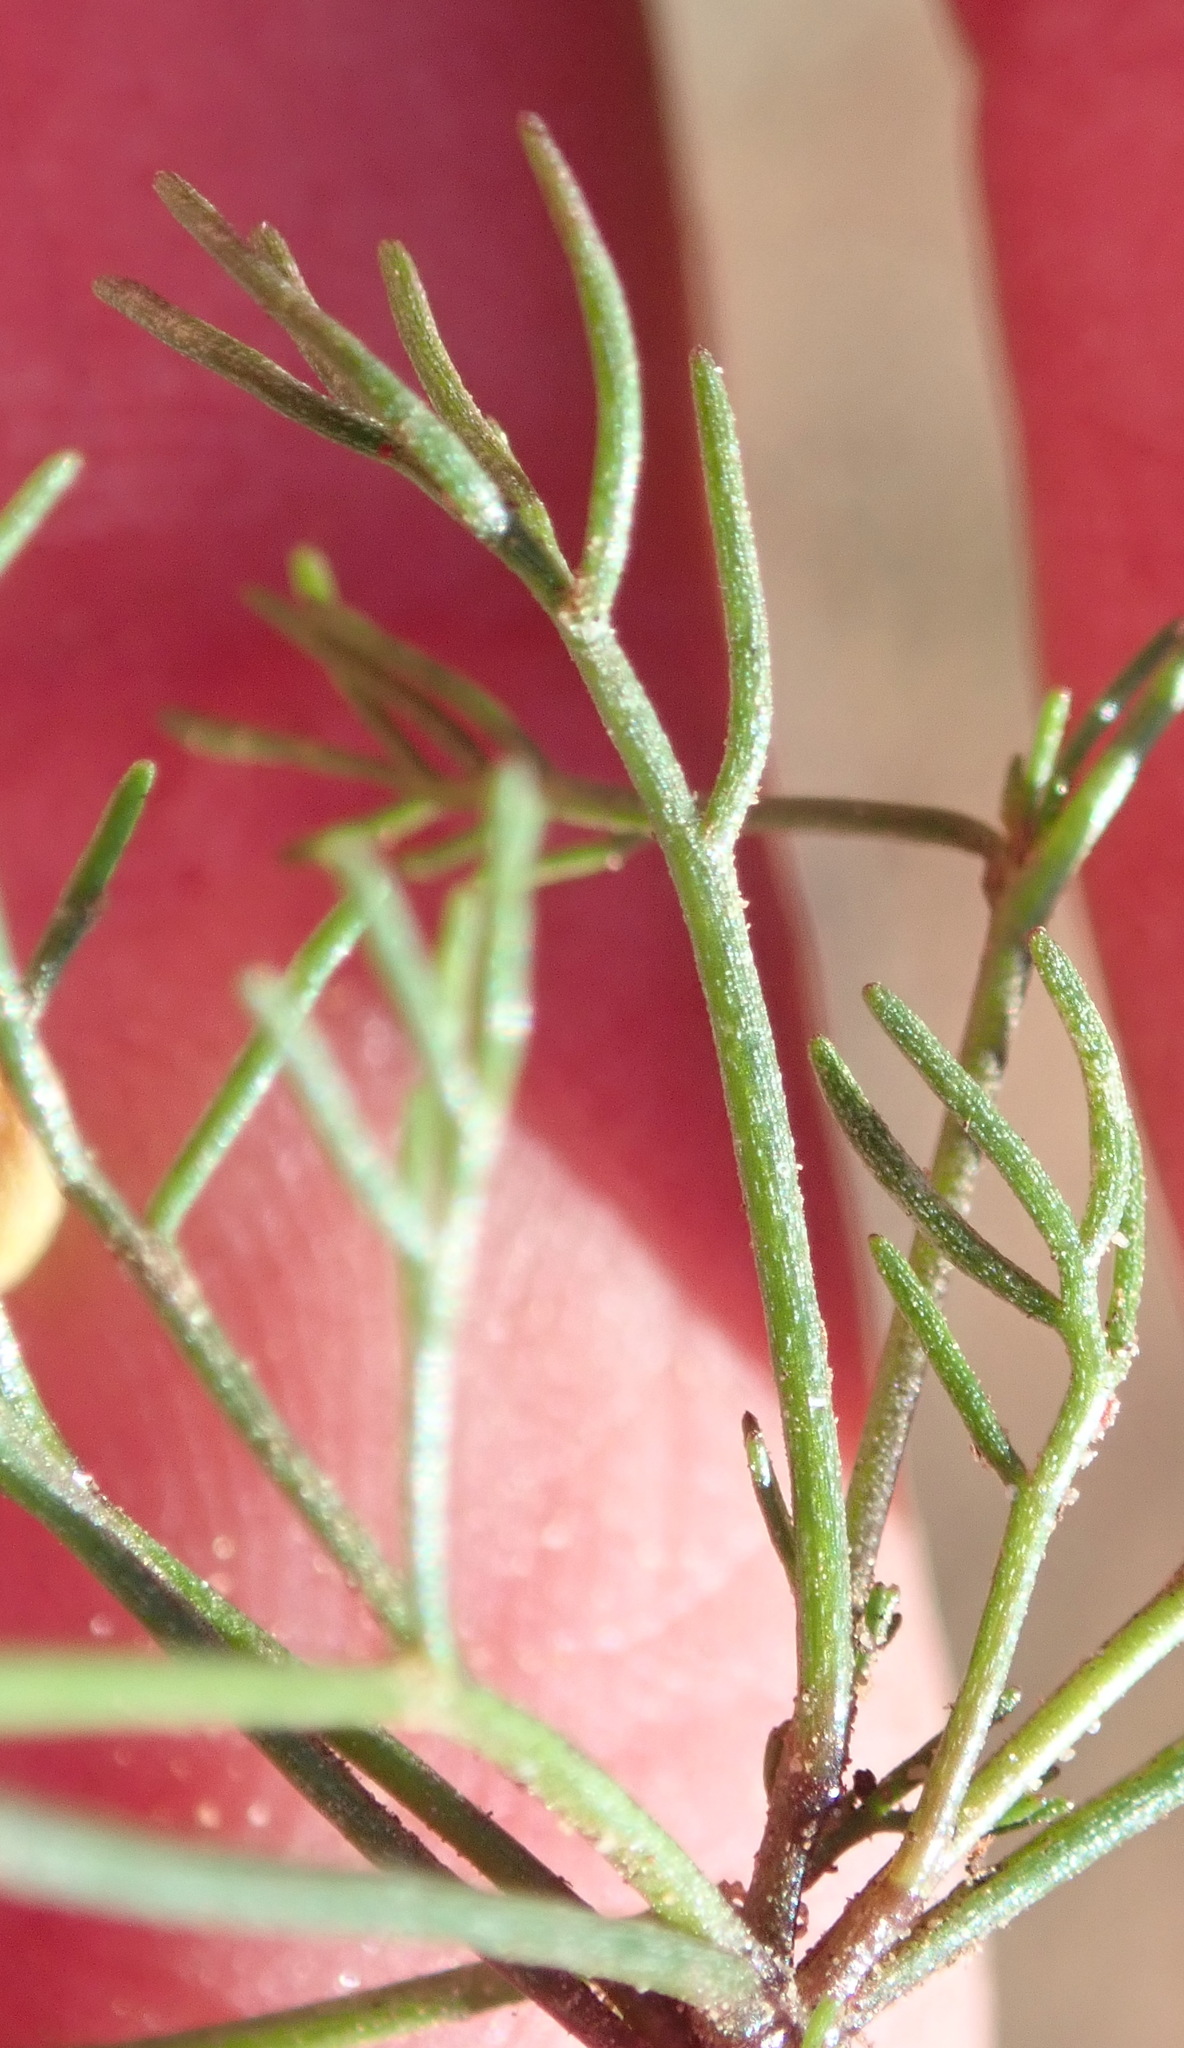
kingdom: Plantae
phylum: Tracheophyta
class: Magnoliopsida
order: Brassicales
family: Brassicaceae
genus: Heliophila
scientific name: Heliophila pendula
